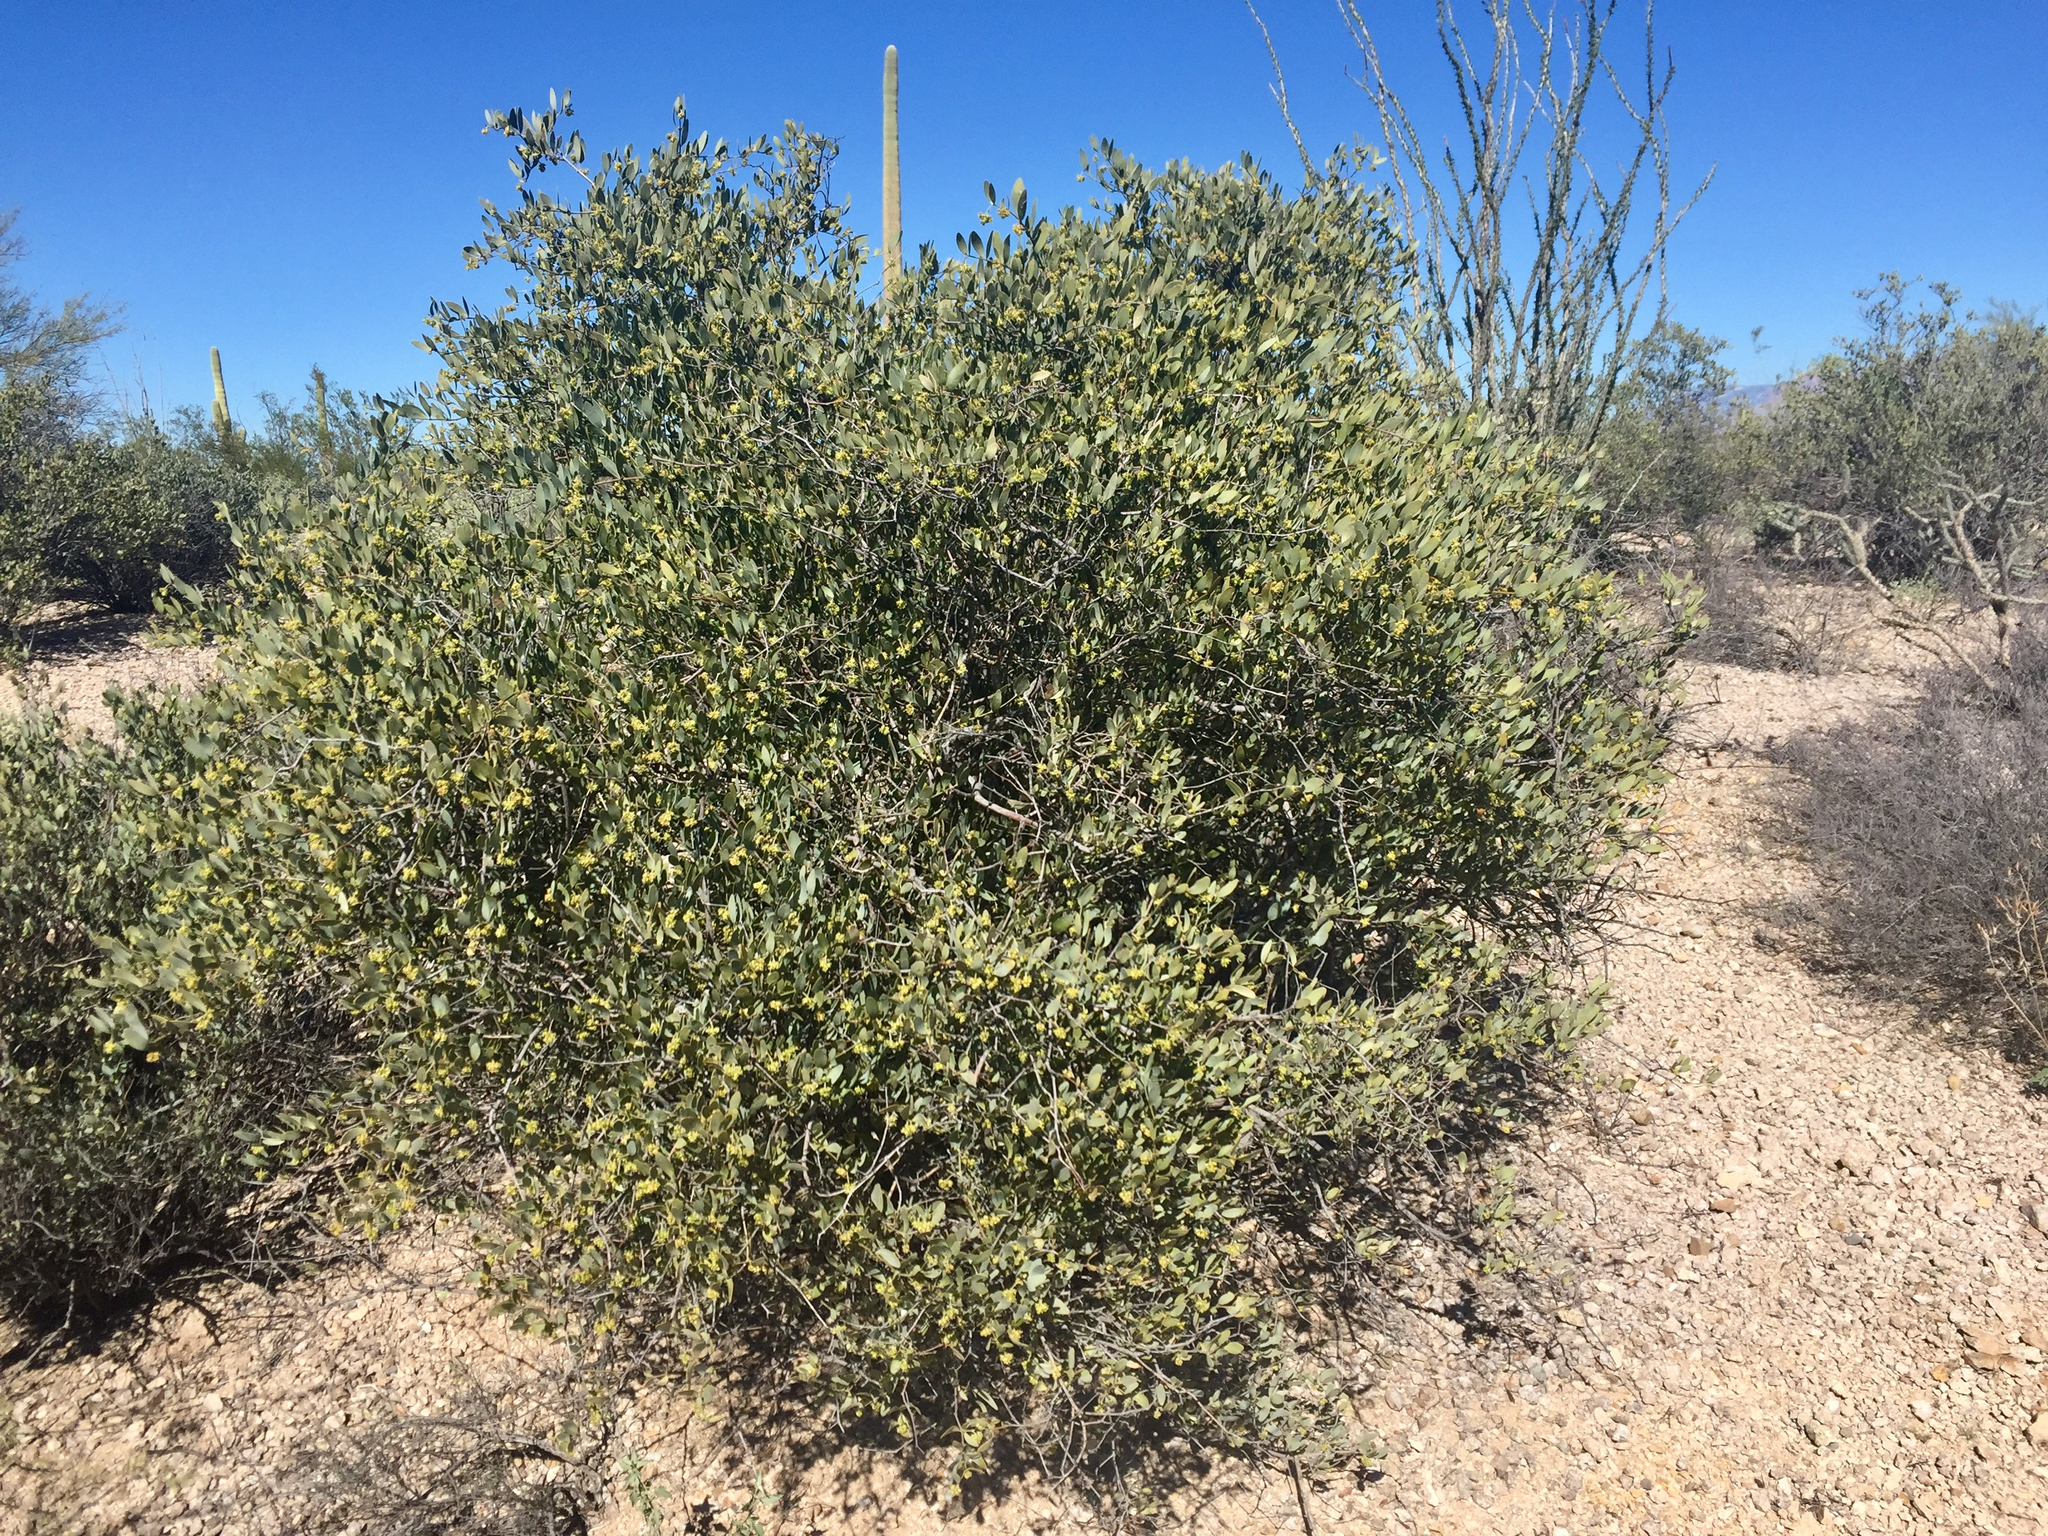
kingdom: Plantae
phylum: Tracheophyta
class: Magnoliopsida
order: Caryophyllales
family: Simmondsiaceae
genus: Simmondsia
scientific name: Simmondsia chinensis
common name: Jojoba
